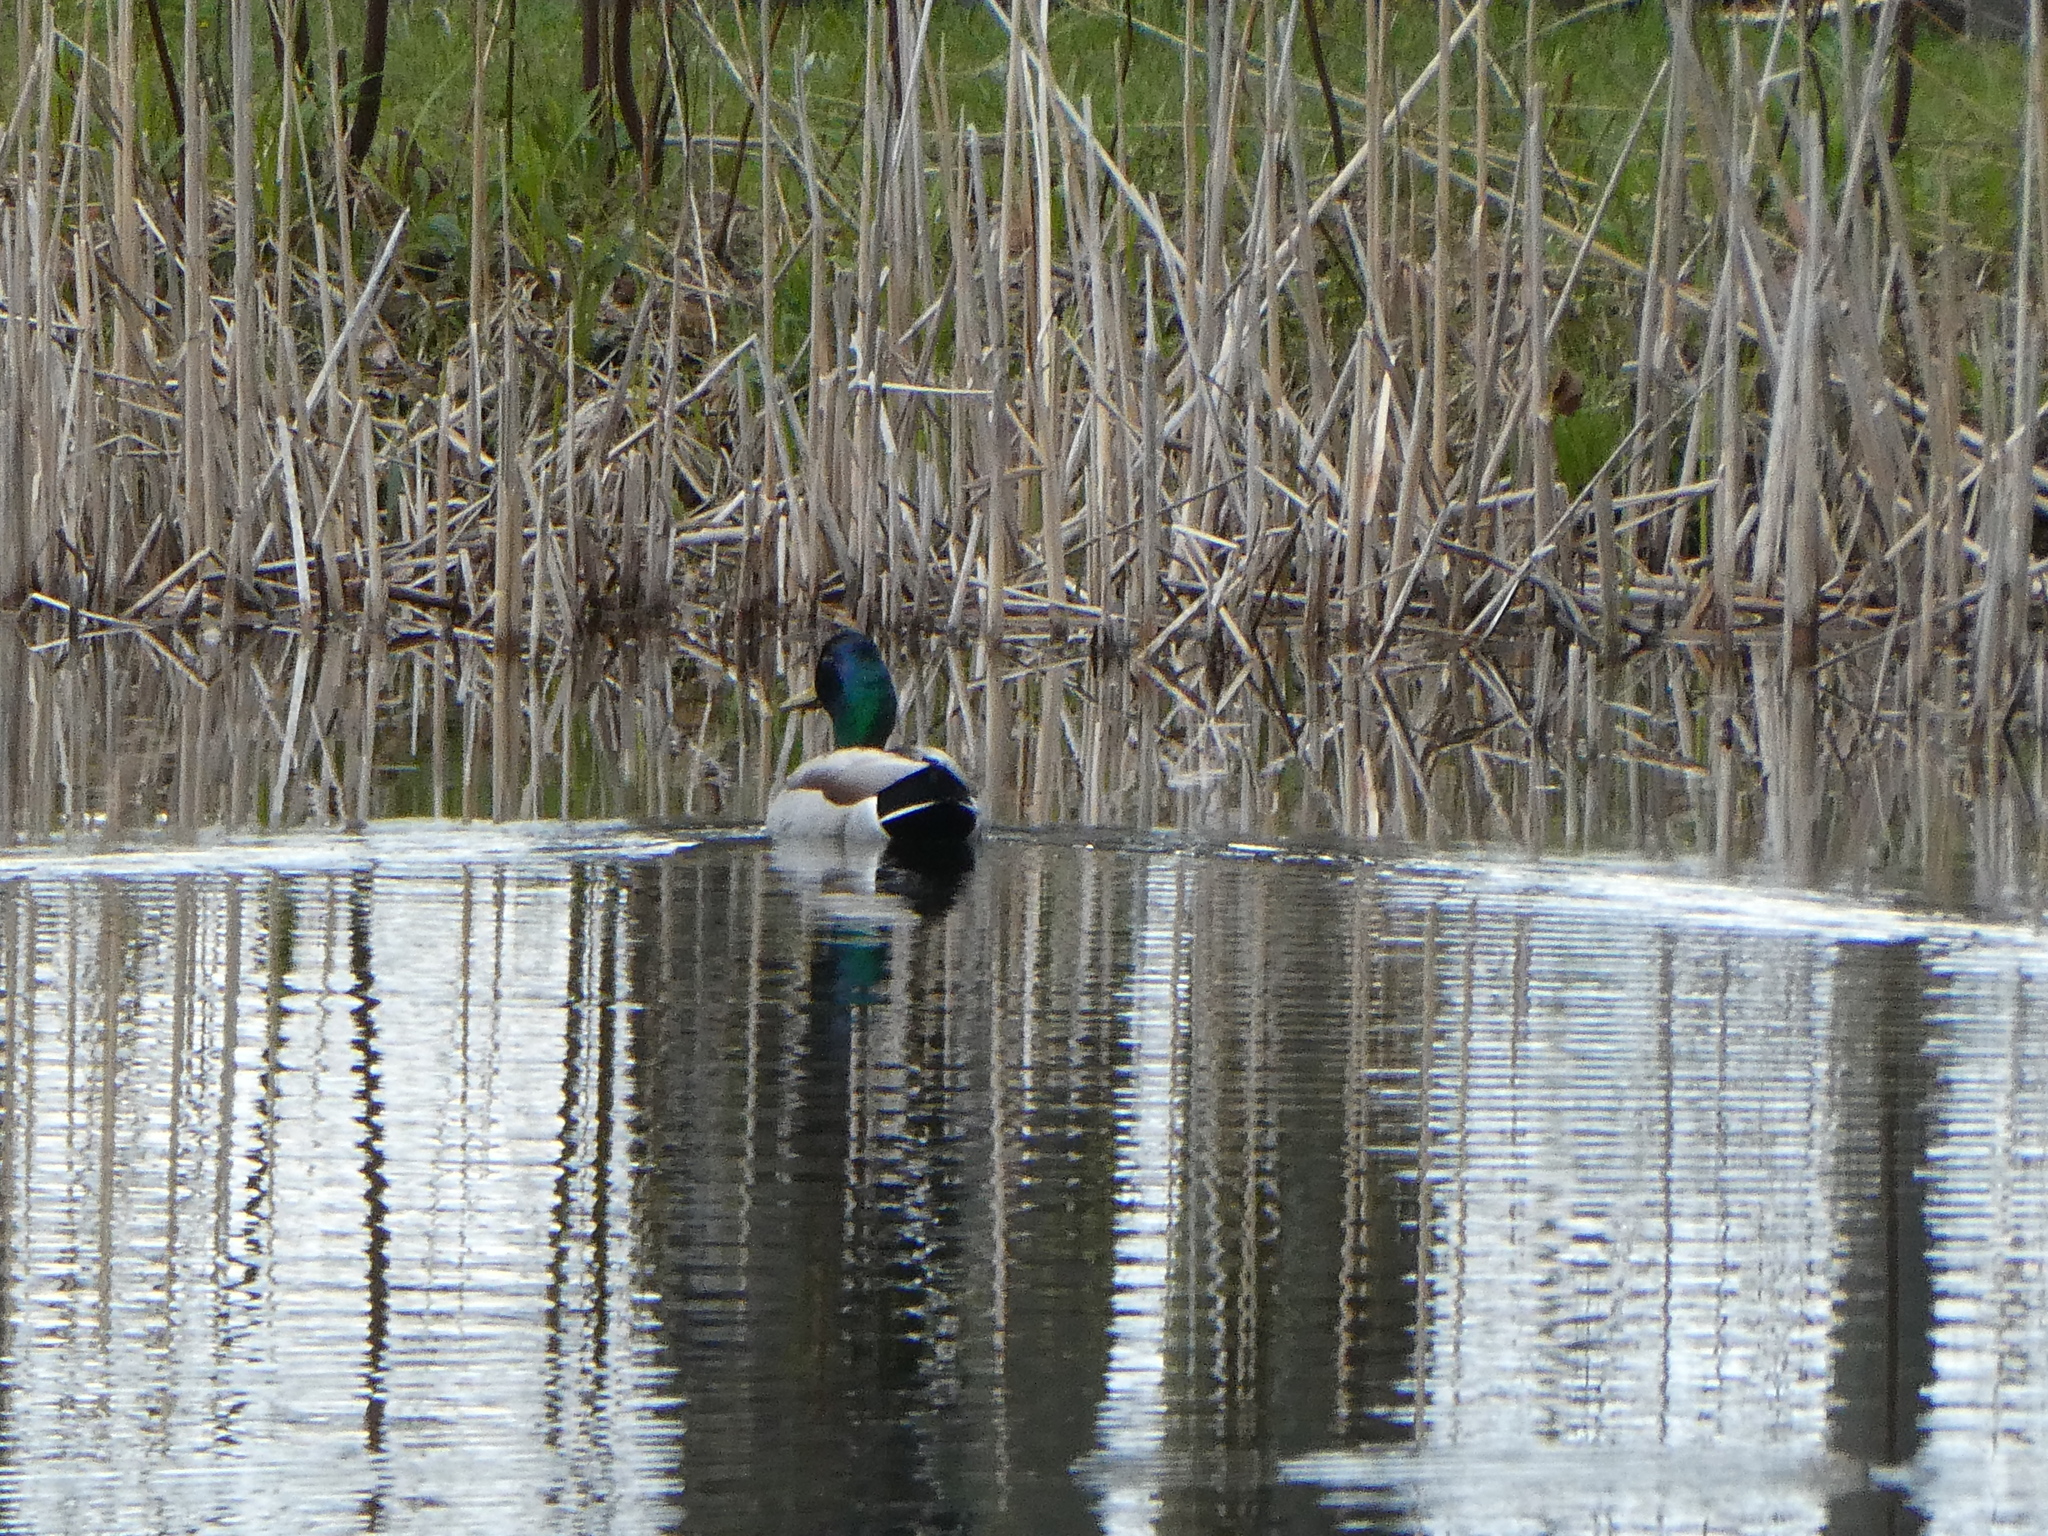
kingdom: Animalia
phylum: Chordata
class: Aves
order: Anseriformes
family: Anatidae
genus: Anas
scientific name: Anas platyrhynchos
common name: Mallard
